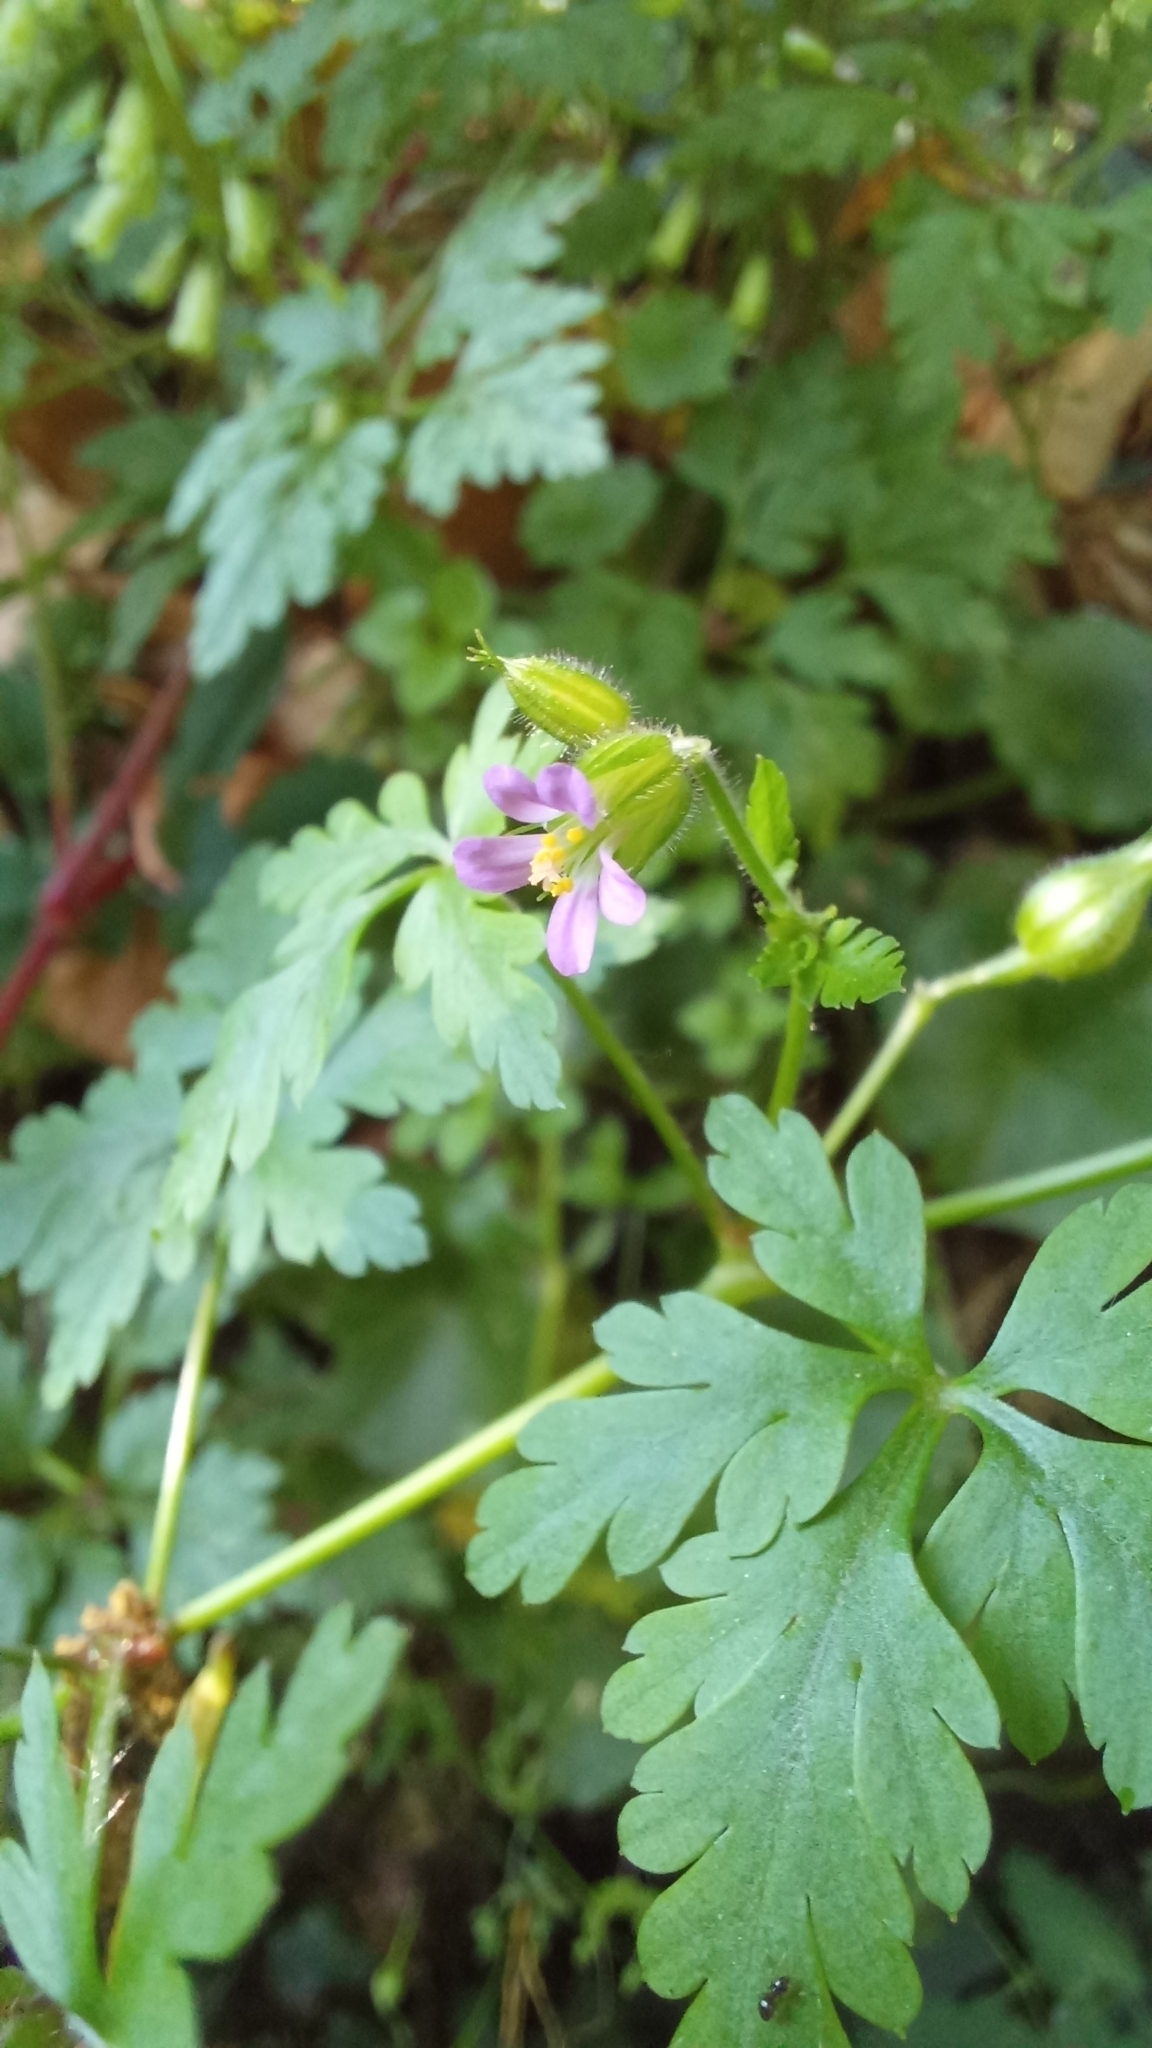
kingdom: Plantae
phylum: Tracheophyta
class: Magnoliopsida
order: Geraniales
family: Geraniaceae
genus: Geranium
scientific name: Geranium purpureum
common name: Little-robin
